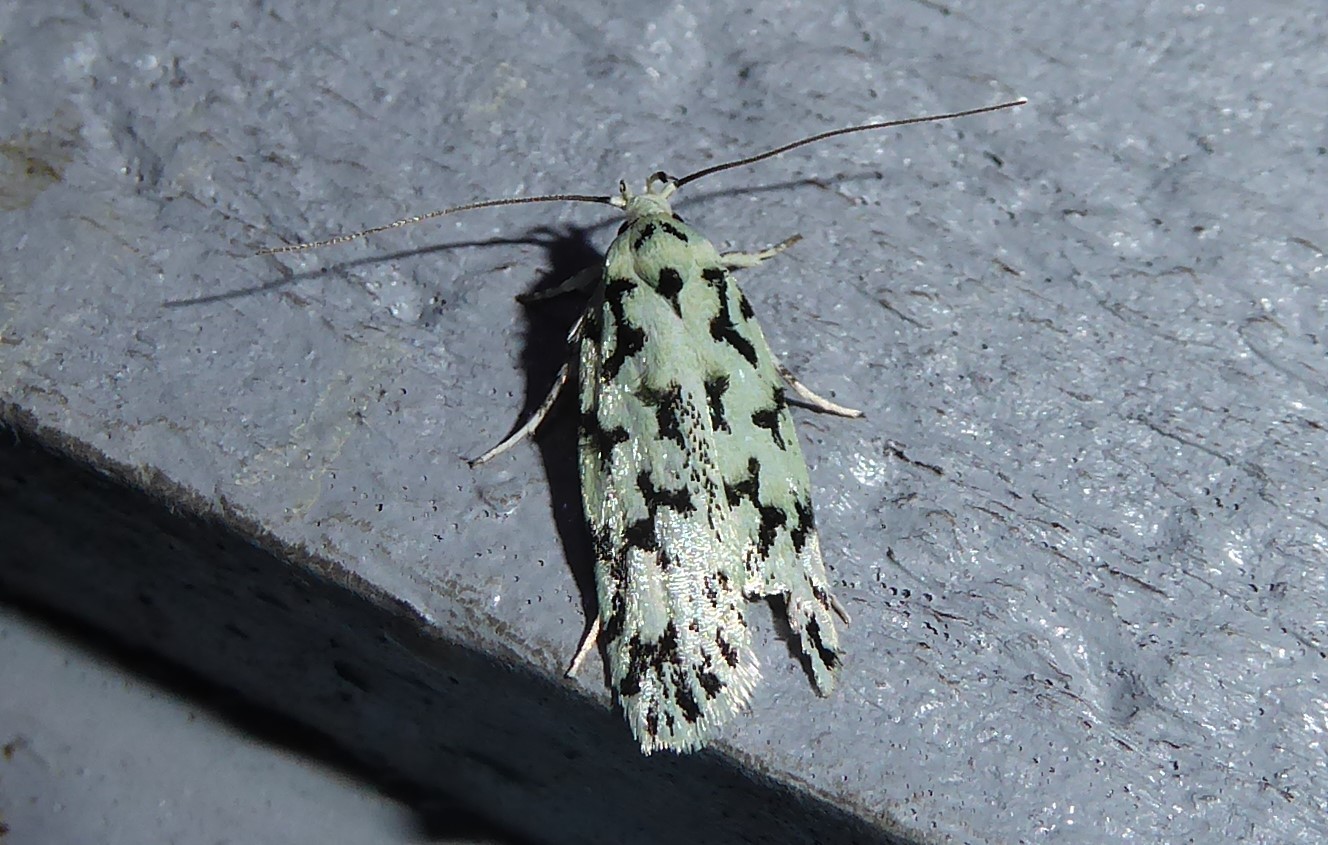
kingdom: Animalia
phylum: Arthropoda
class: Insecta
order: Lepidoptera
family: Oecophoridae
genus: Izatha
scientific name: Izatha huttoni
